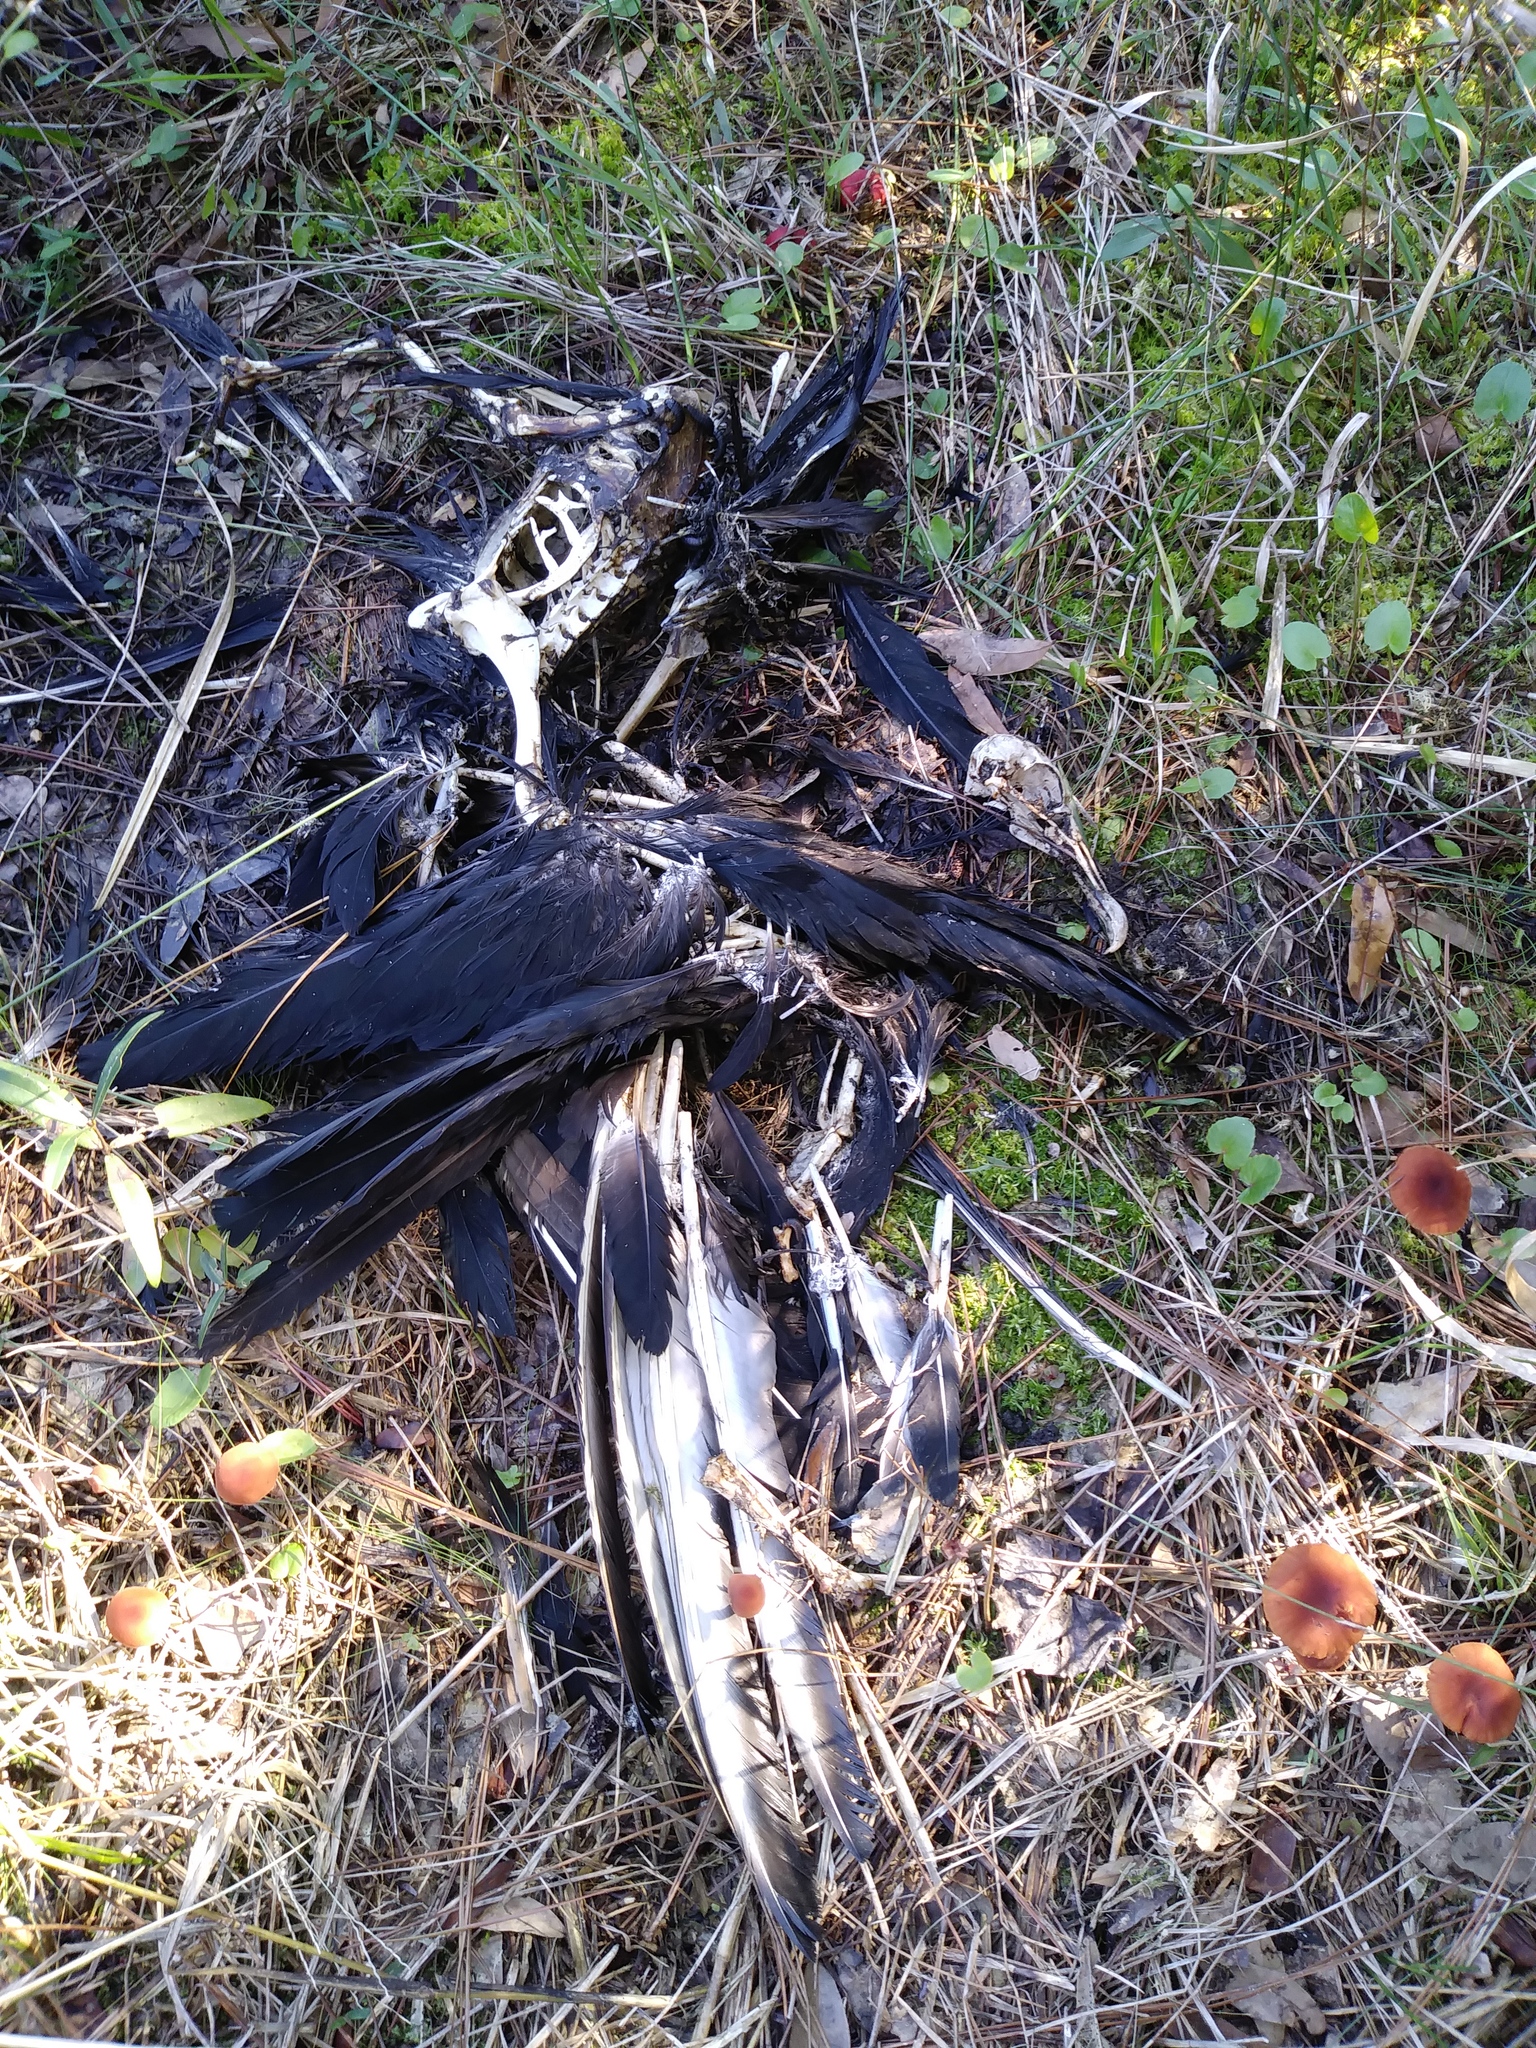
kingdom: Animalia
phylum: Chordata
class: Aves
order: Accipitriformes
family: Cathartidae
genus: Coragyps
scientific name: Coragyps atratus
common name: Black vulture
